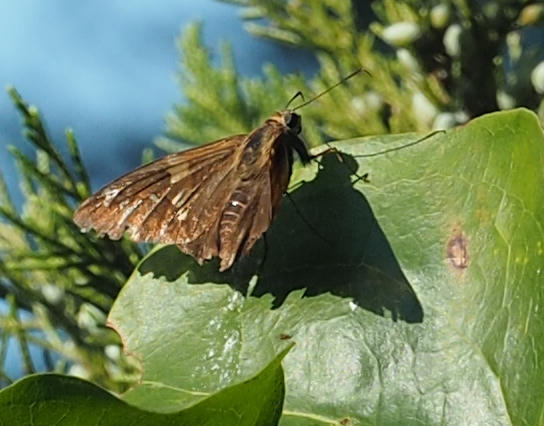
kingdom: Animalia
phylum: Arthropoda
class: Insecta
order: Lepidoptera
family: Hesperiidae
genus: Epargyreus
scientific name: Epargyreus clarus
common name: Silver-spotted skipper
